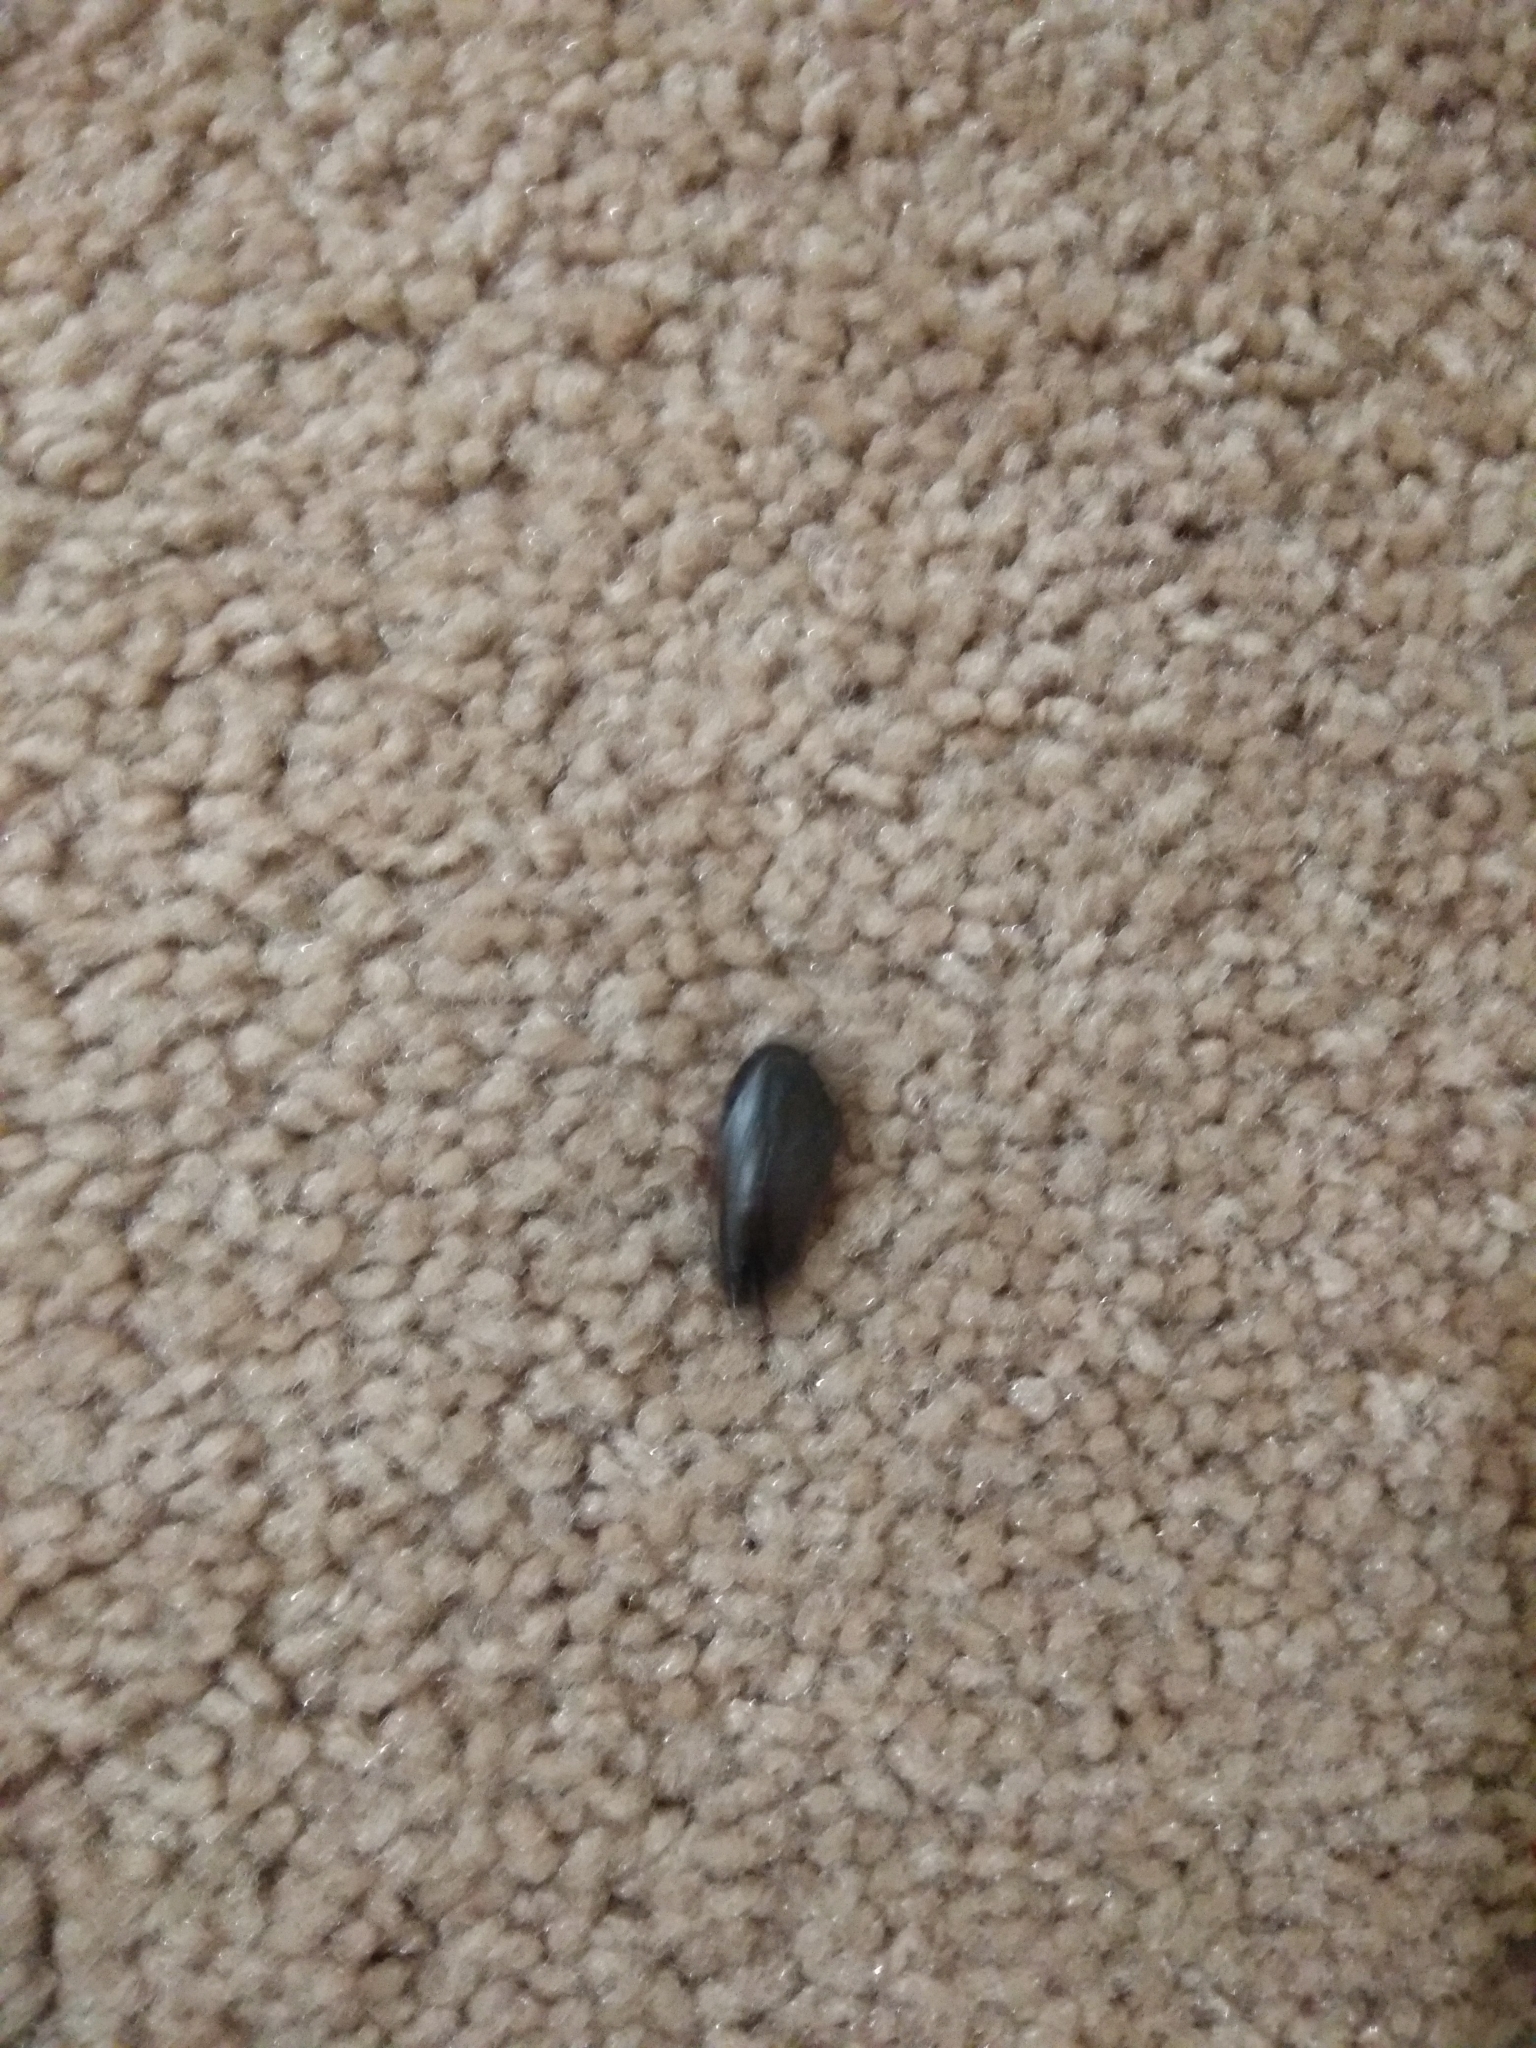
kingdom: Animalia
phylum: Arthropoda
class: Insecta
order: Blattodea
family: Blaberidae
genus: Pycnoscelus
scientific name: Pycnoscelus surinamensis
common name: Surinam cockroach
